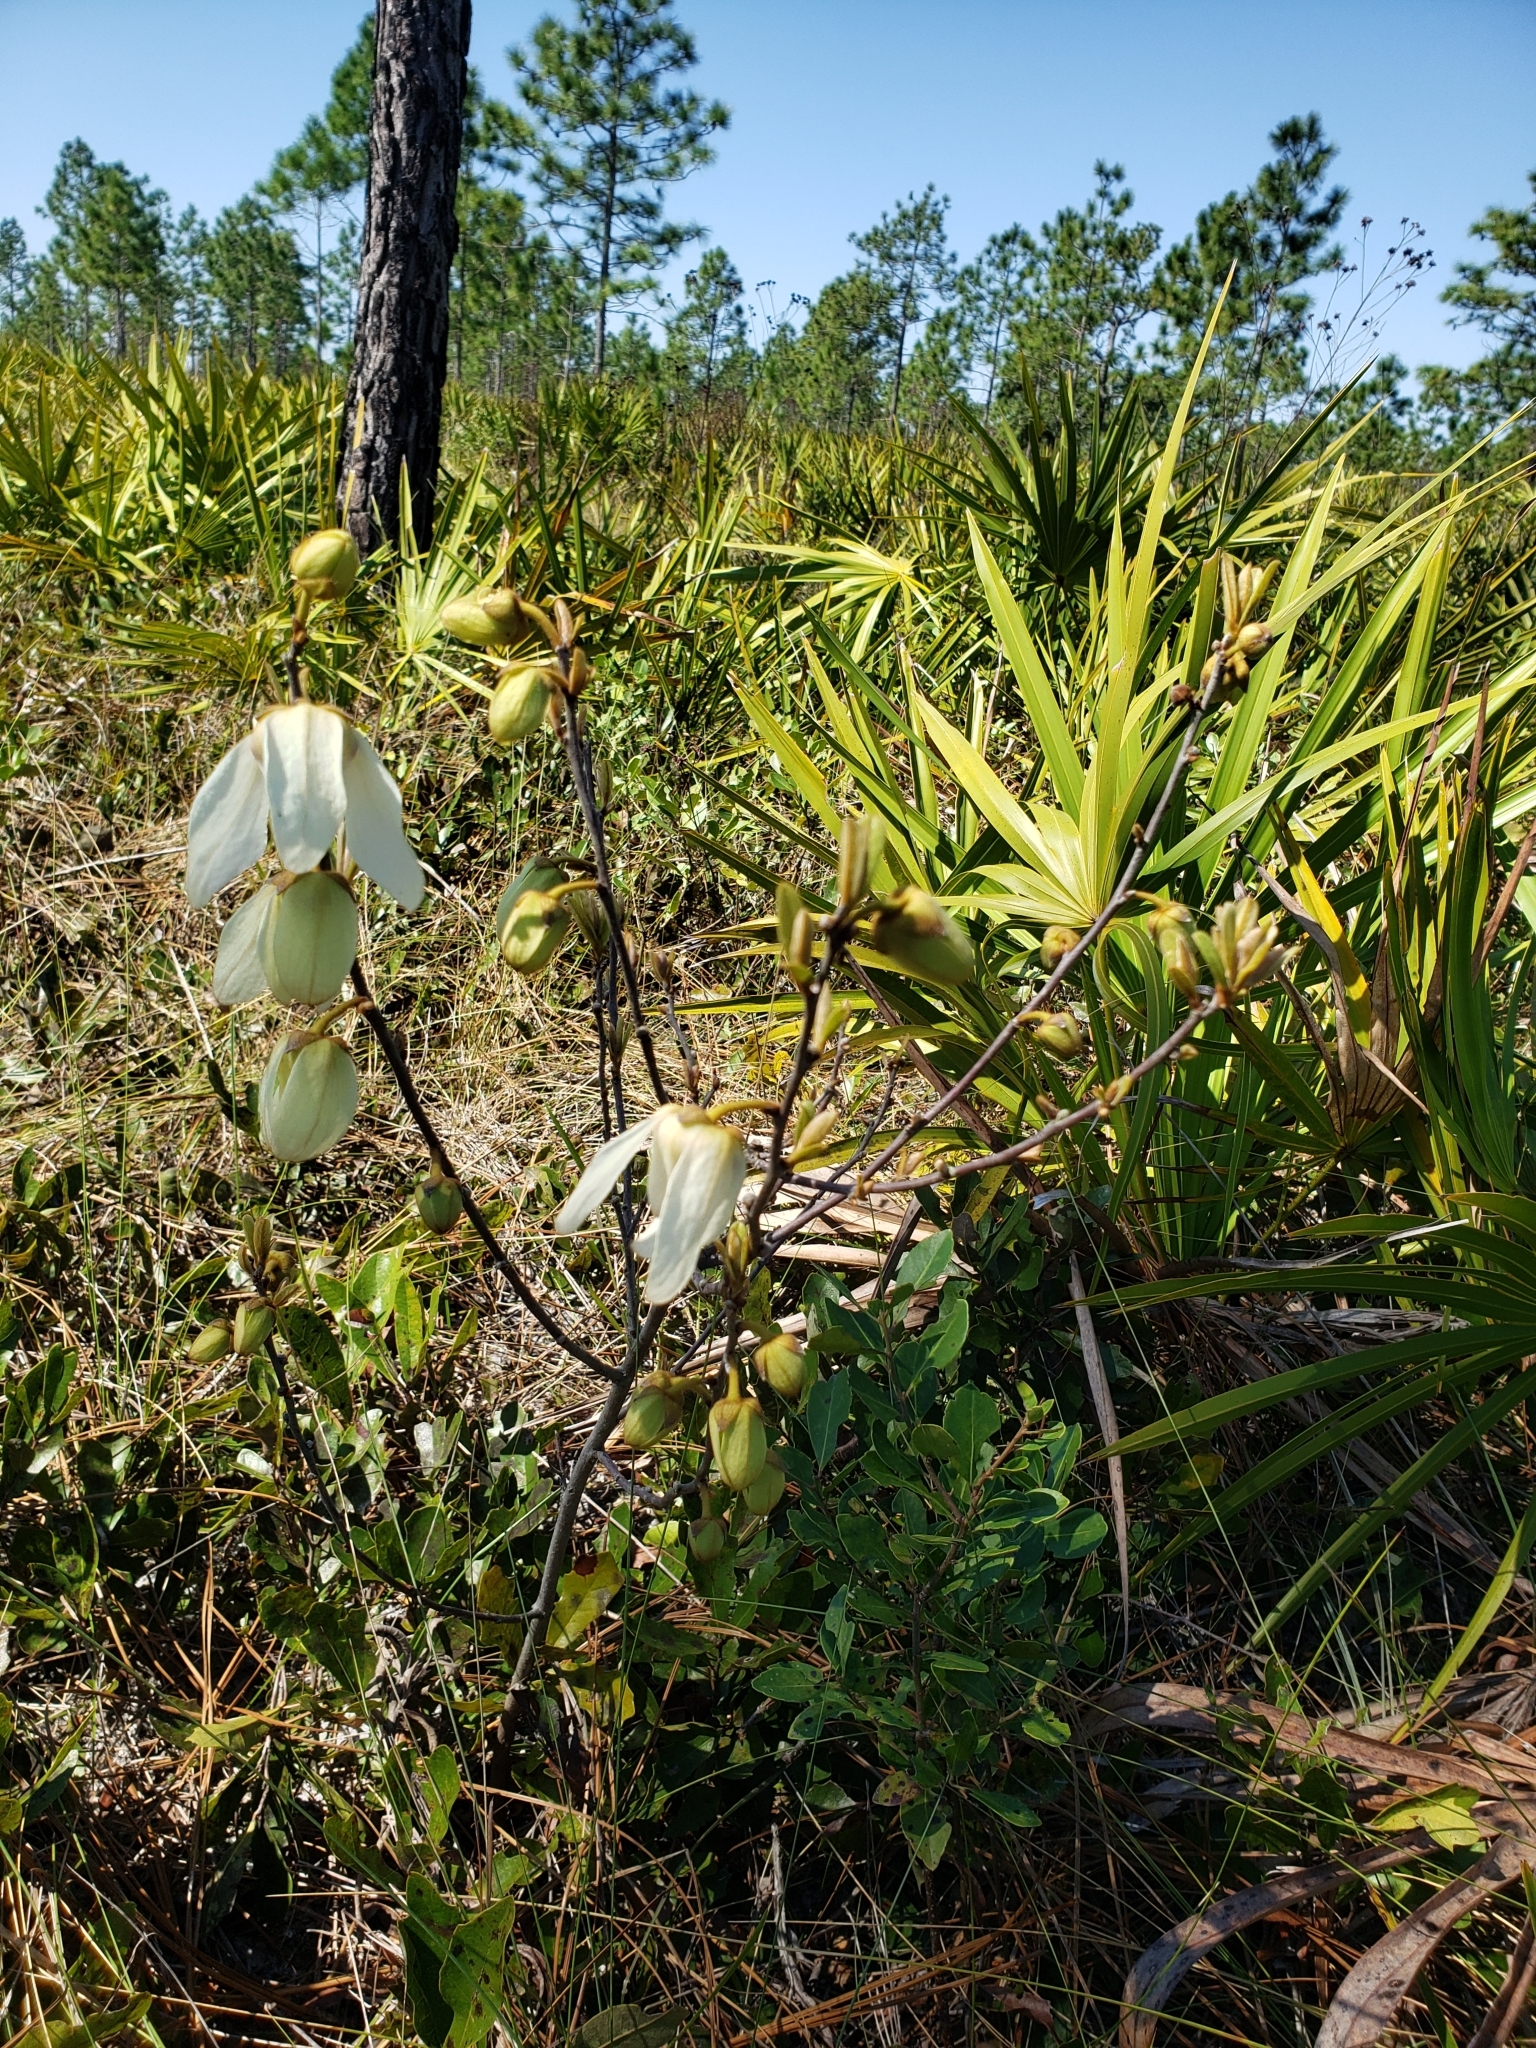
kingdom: Plantae
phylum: Tracheophyta
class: Magnoliopsida
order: Magnoliales
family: Annonaceae
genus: Asimina
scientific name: Asimina reticulata
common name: Flag pawpaw
